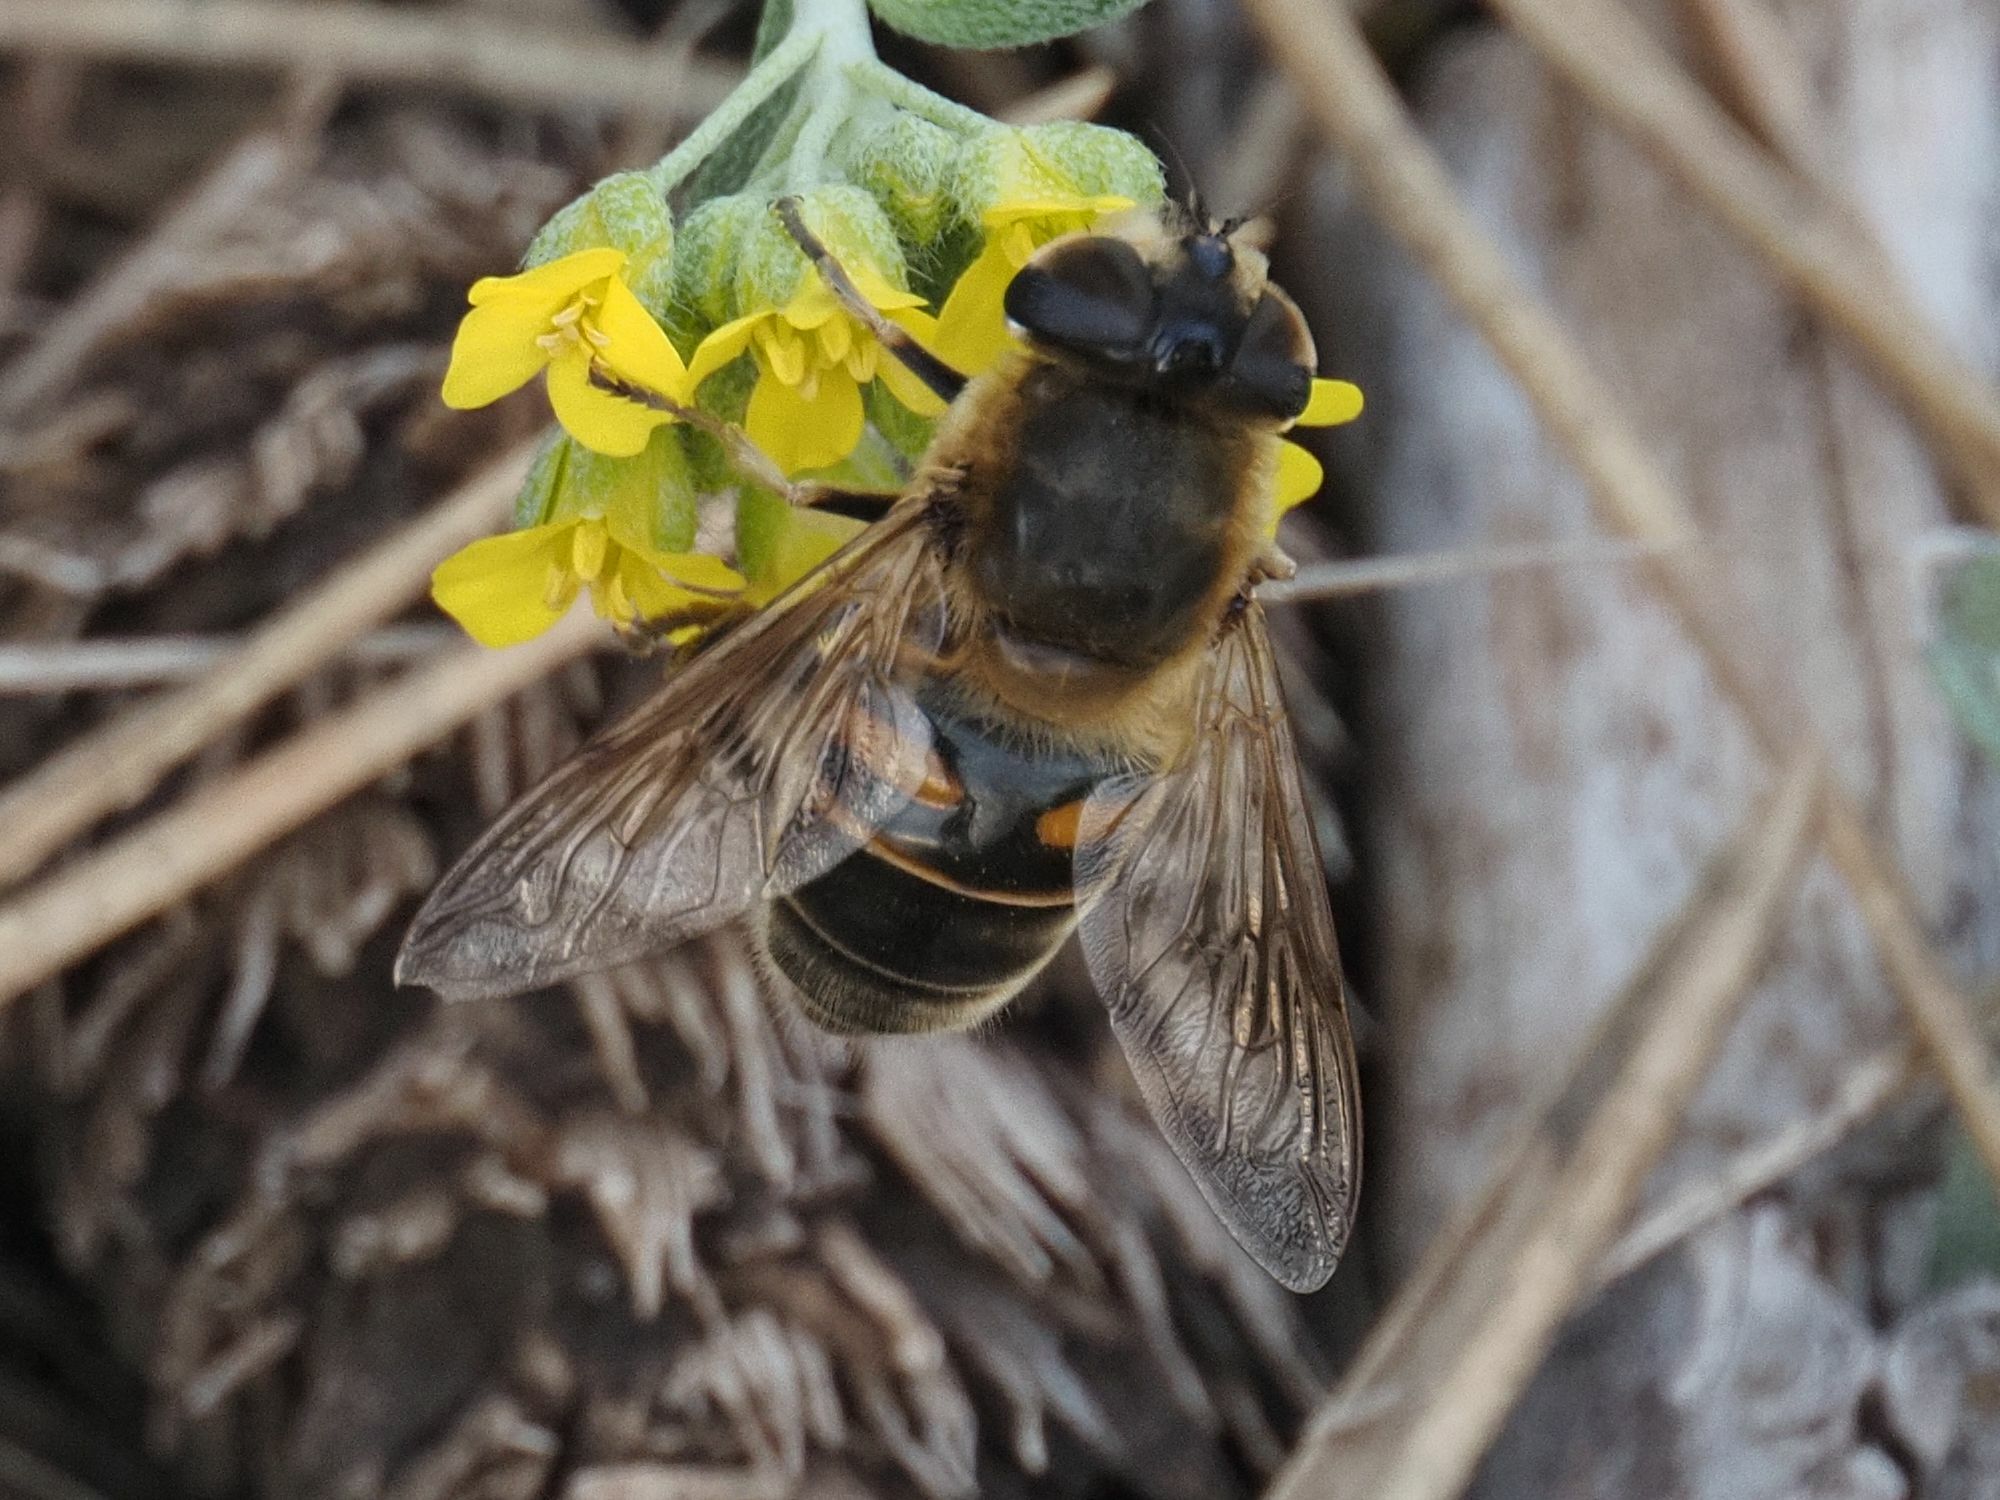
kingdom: Animalia
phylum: Arthropoda
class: Insecta
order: Diptera
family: Syrphidae
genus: Eristalis
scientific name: Eristalis tenax
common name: Drone fly
